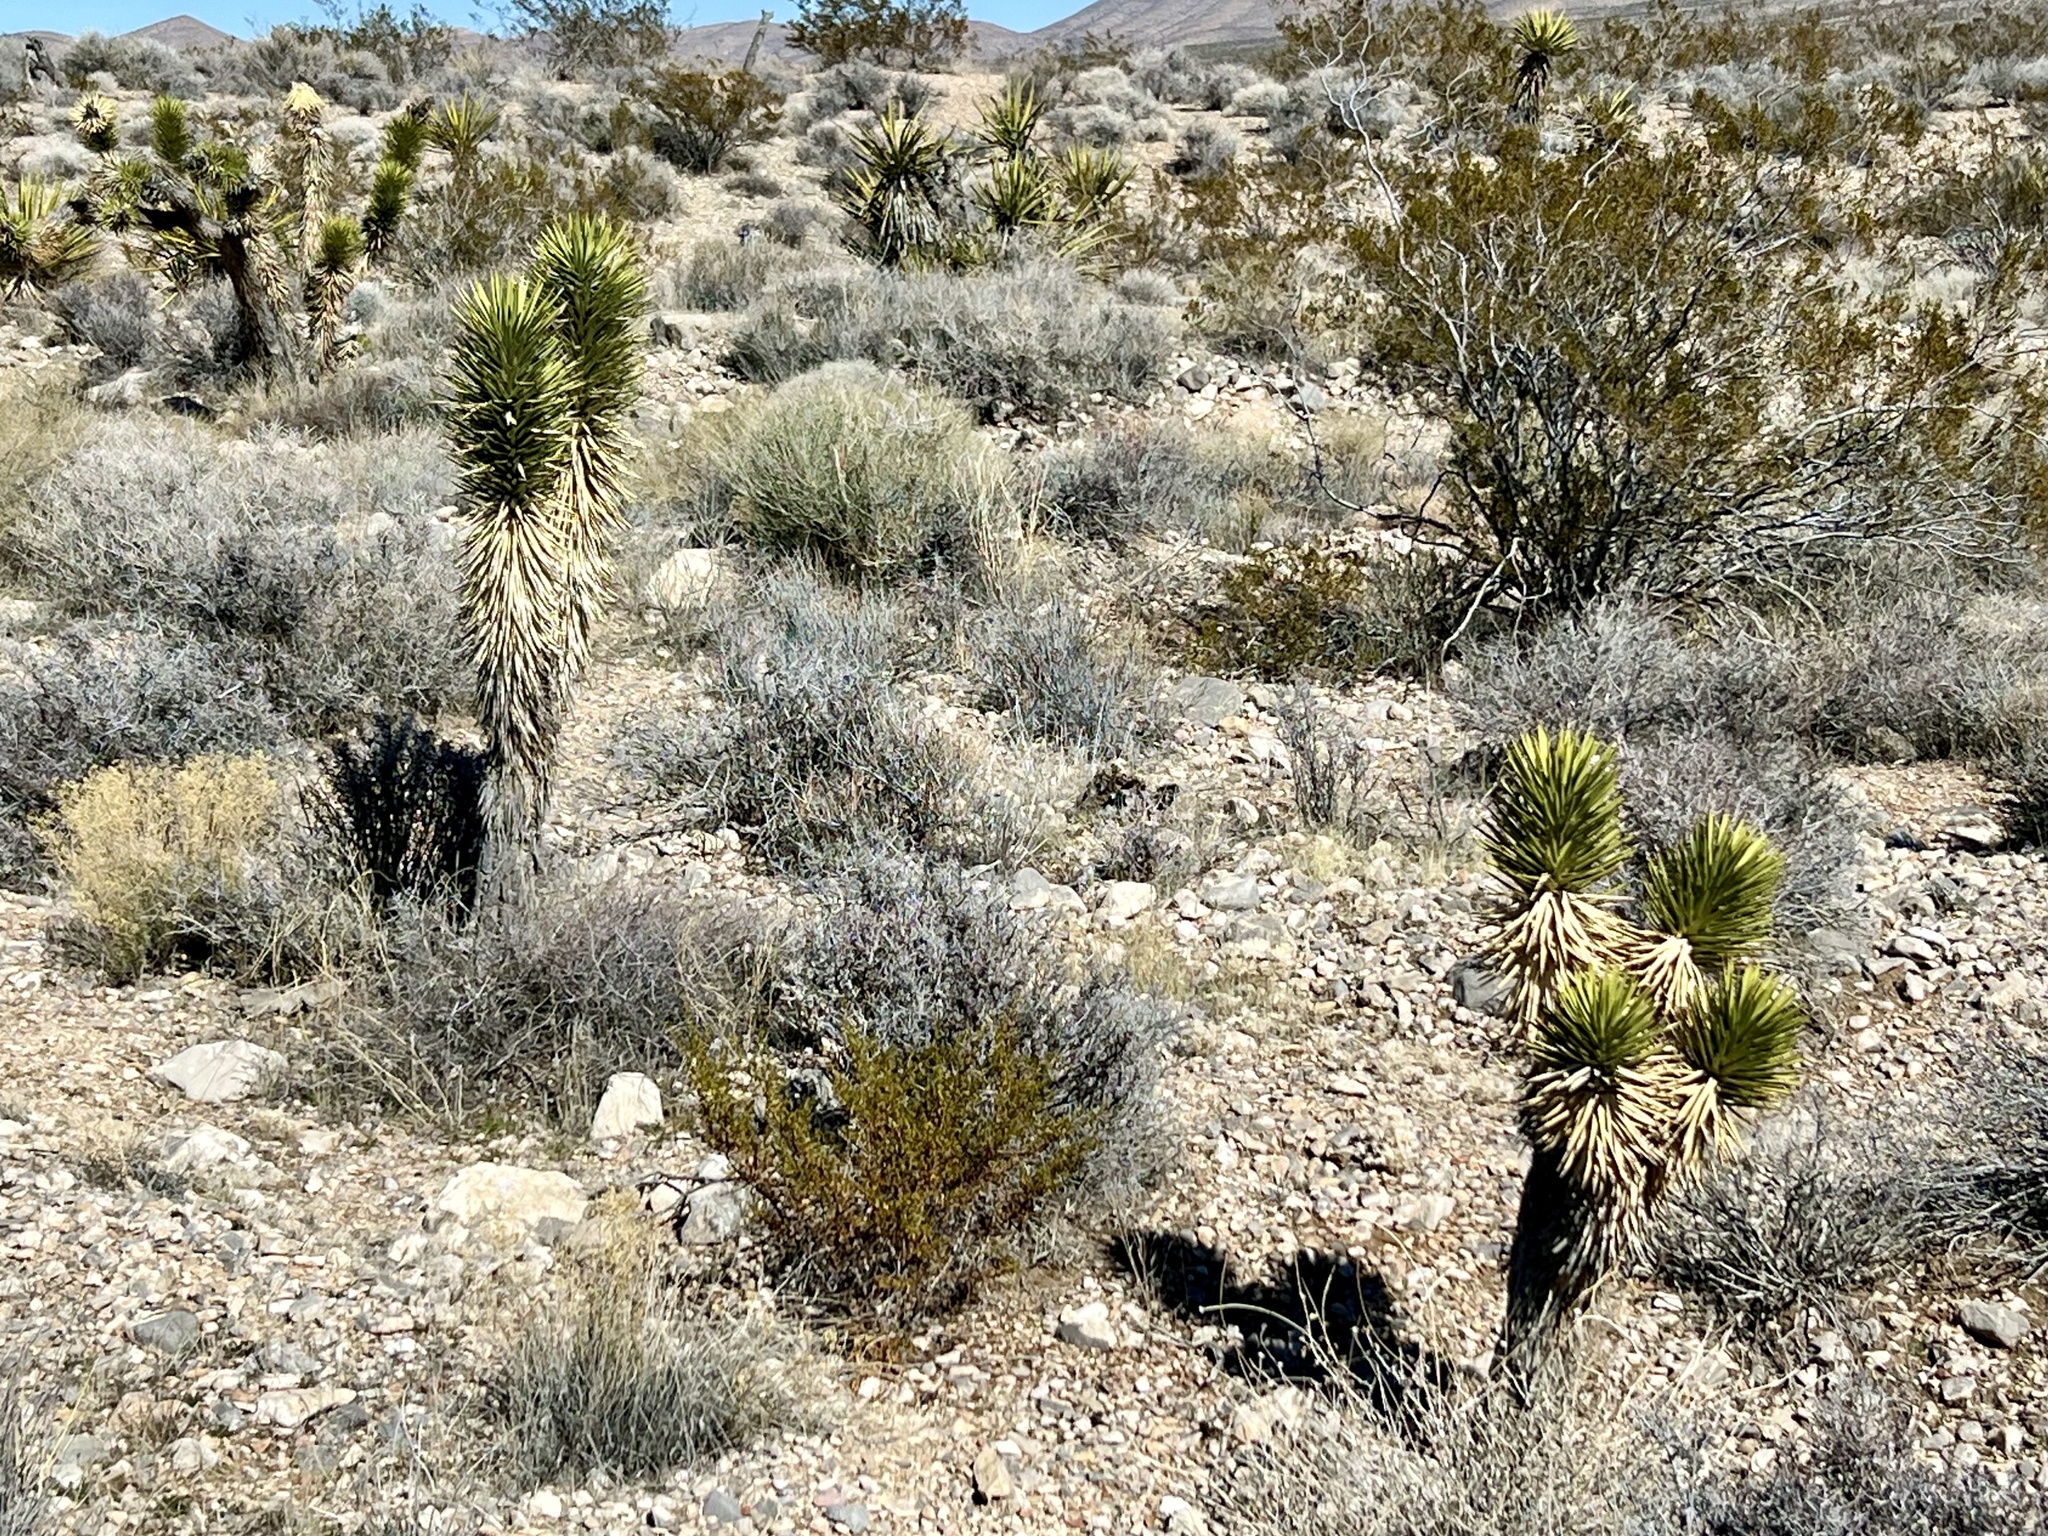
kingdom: Plantae
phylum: Tracheophyta
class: Liliopsida
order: Asparagales
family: Asparagaceae
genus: Yucca
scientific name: Yucca brevifolia
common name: Joshua tree
